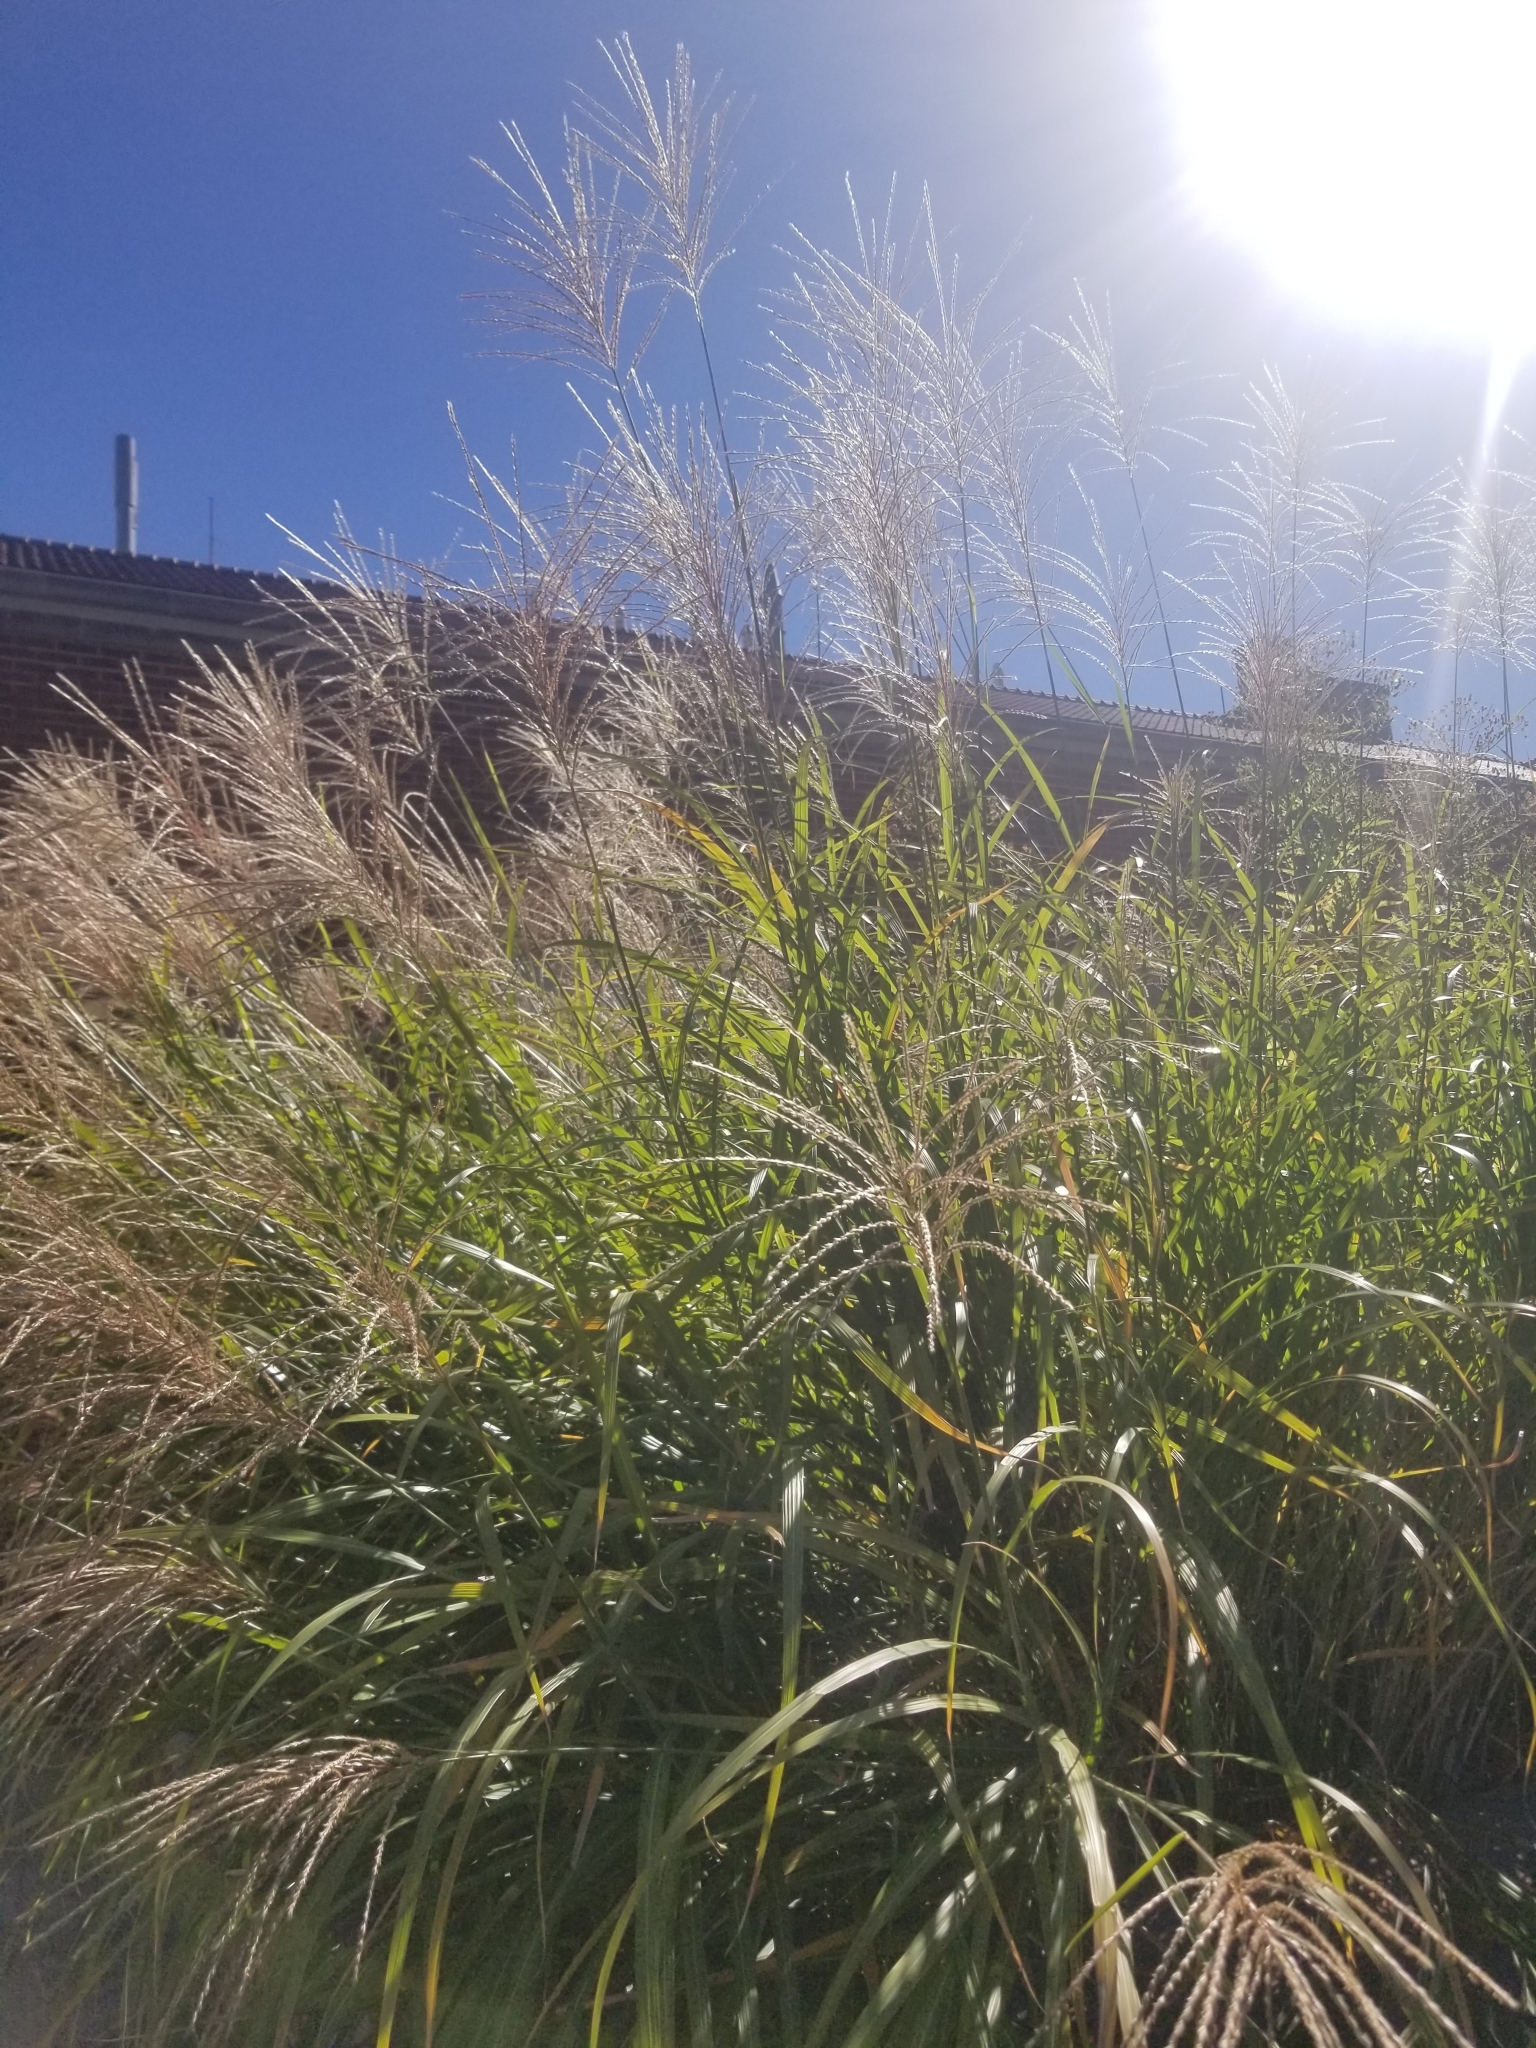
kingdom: Plantae
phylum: Tracheophyta
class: Liliopsida
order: Poales
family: Poaceae
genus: Miscanthus
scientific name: Miscanthus sinensis
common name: Chinese silvergrass
